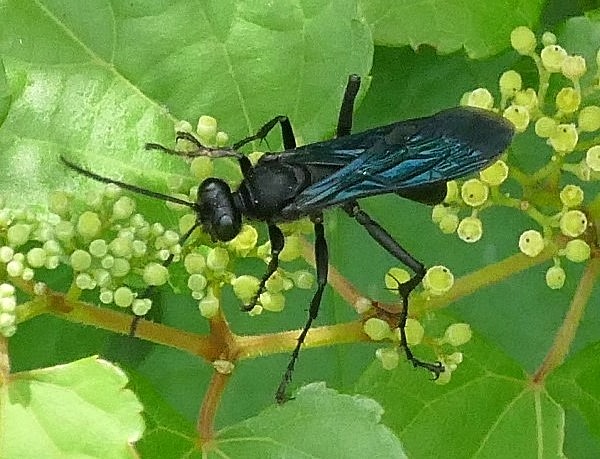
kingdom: Animalia
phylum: Arthropoda
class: Insecta
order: Hymenoptera
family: Sphecidae
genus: Sphex
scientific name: Sphex pensylvanicus
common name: Great black digger wasp
